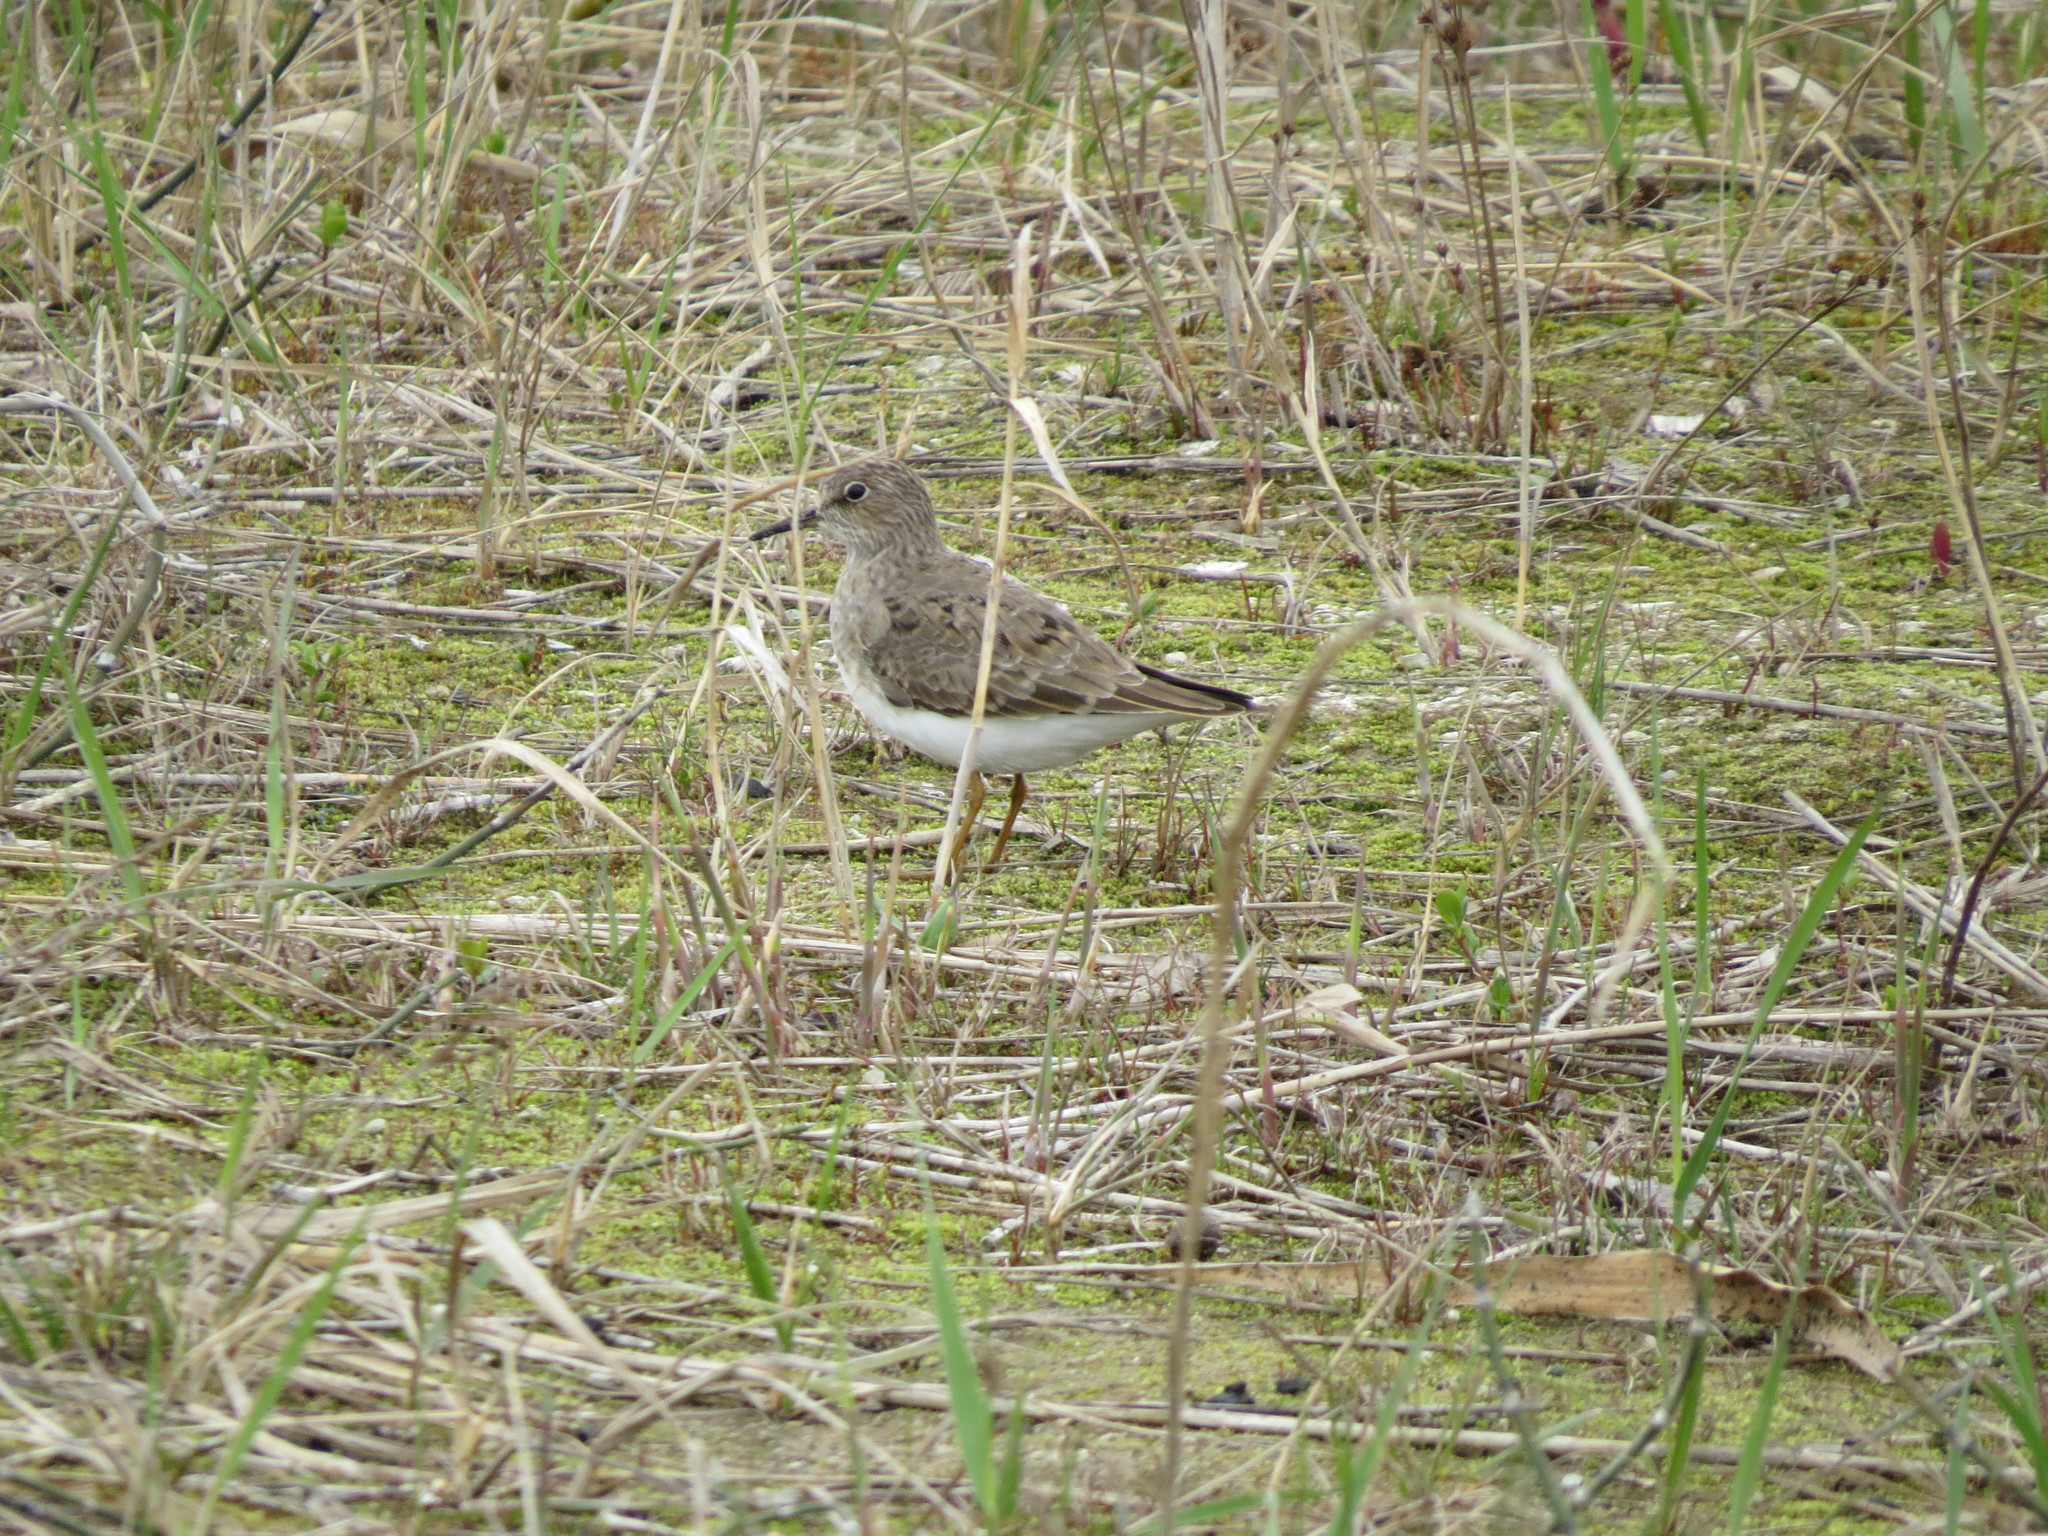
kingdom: Animalia
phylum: Chordata
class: Aves
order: Charadriiformes
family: Scolopacidae
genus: Actitis
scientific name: Actitis hypoleucos
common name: Common sandpiper
